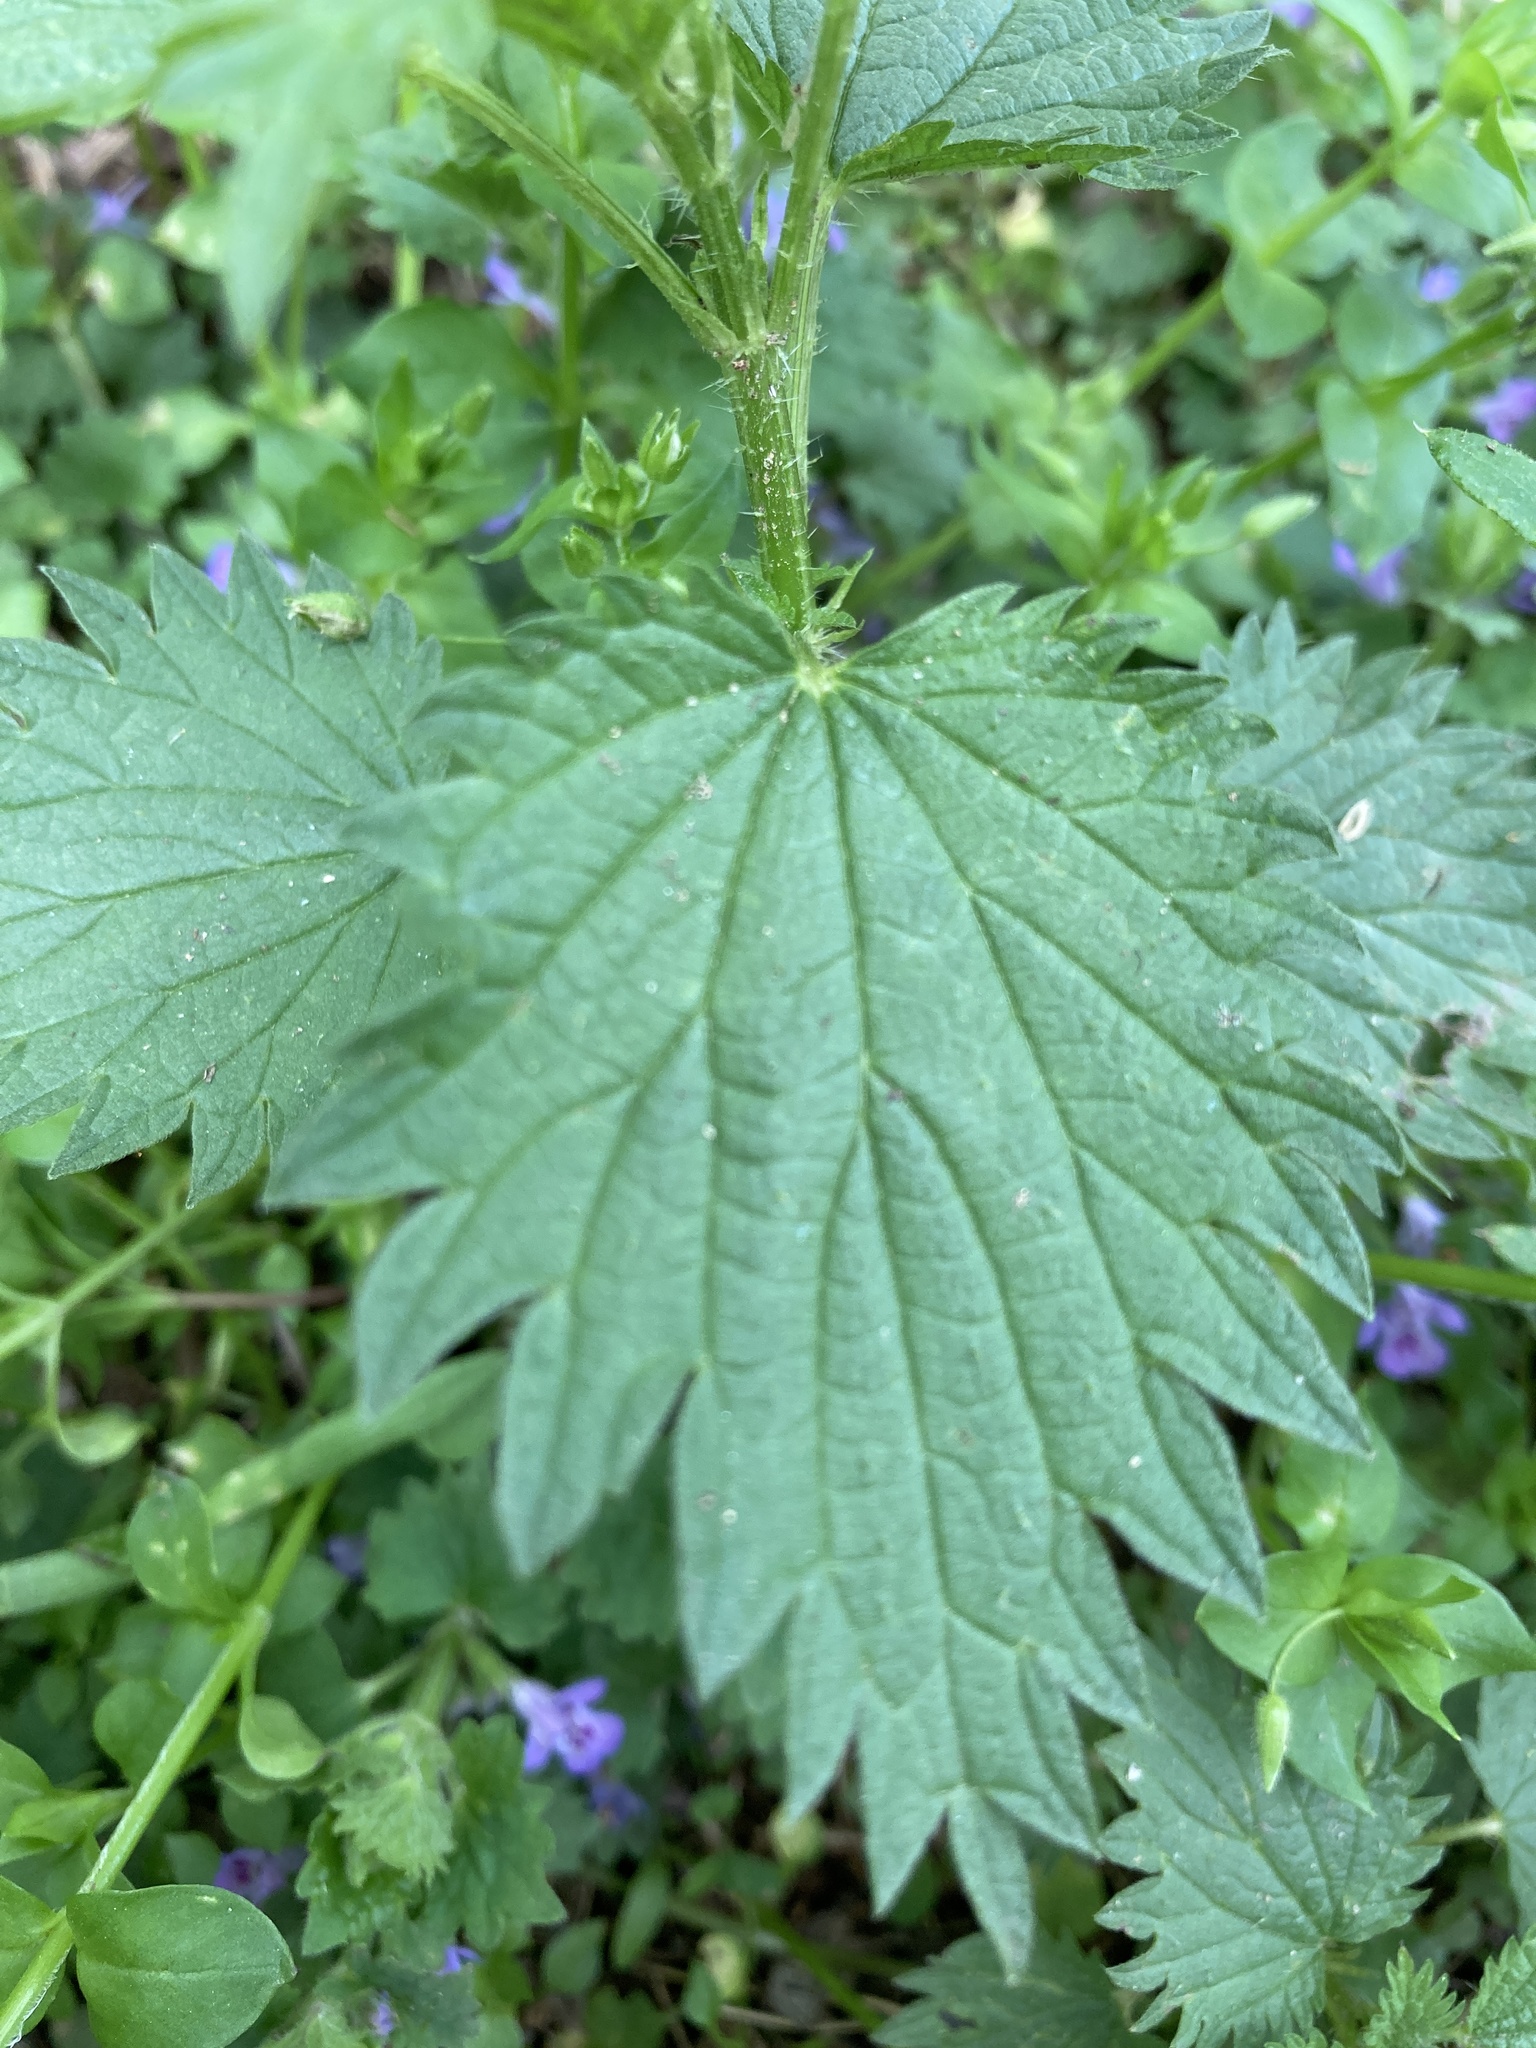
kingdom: Plantae
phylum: Tracheophyta
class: Magnoliopsida
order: Rosales
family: Urticaceae
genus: Urtica
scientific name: Urtica dioica
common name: Common nettle
